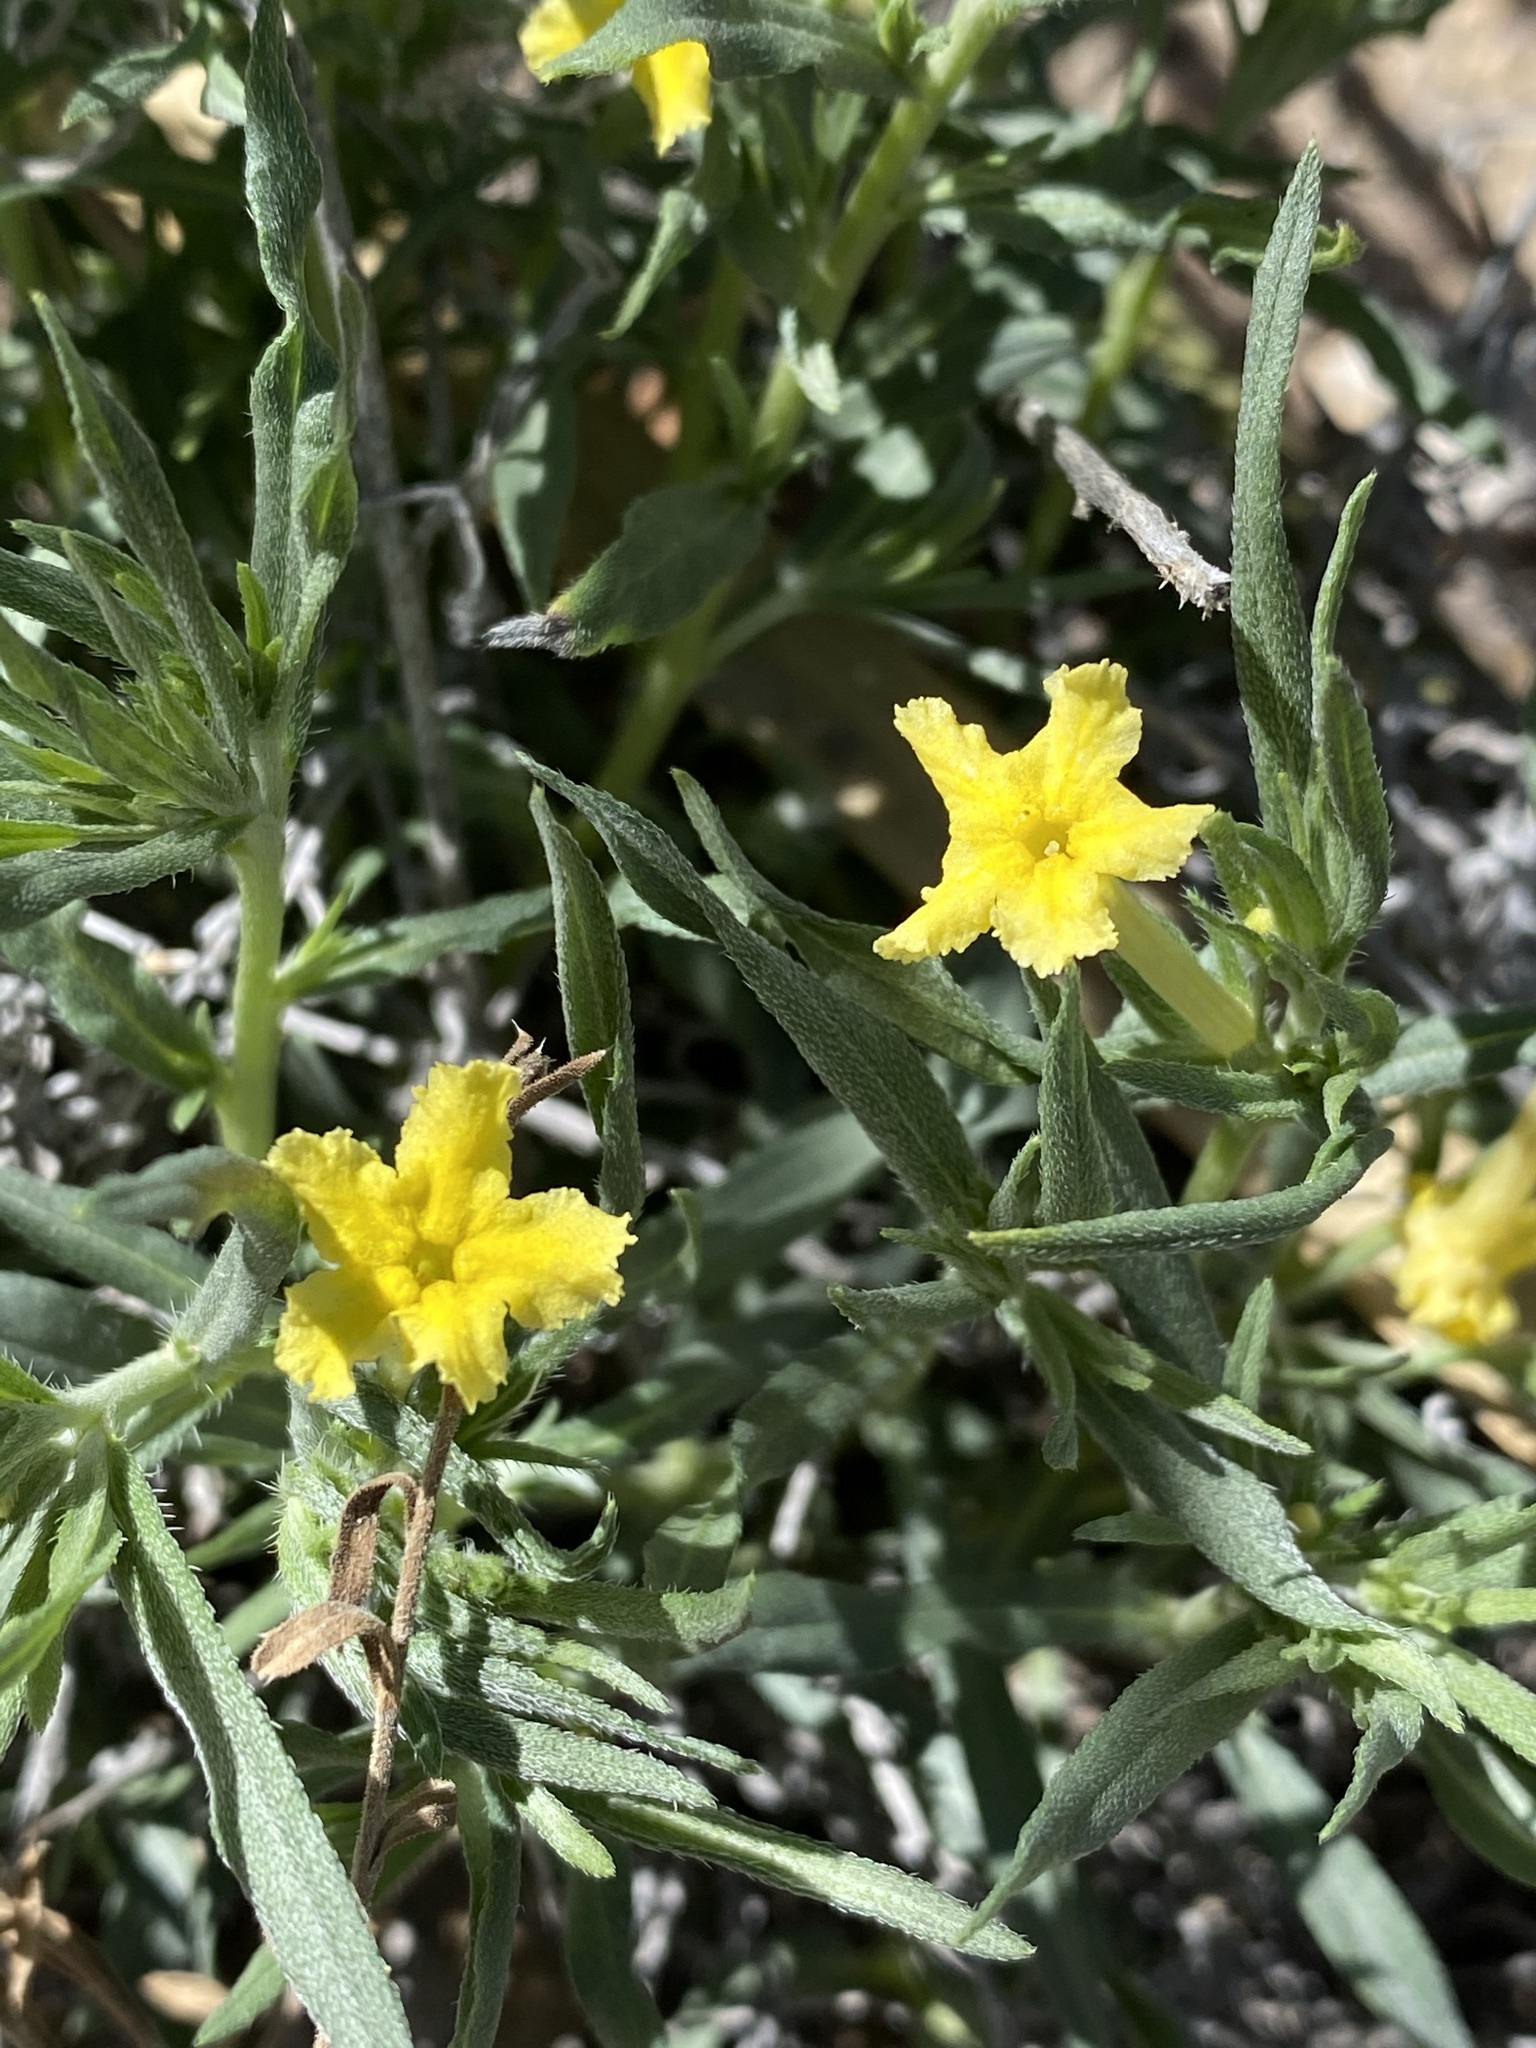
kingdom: Plantae
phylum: Tracheophyta
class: Magnoliopsida
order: Boraginales
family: Boraginaceae
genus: Lithospermum
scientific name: Lithospermum incisum
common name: Fringed gromwell
